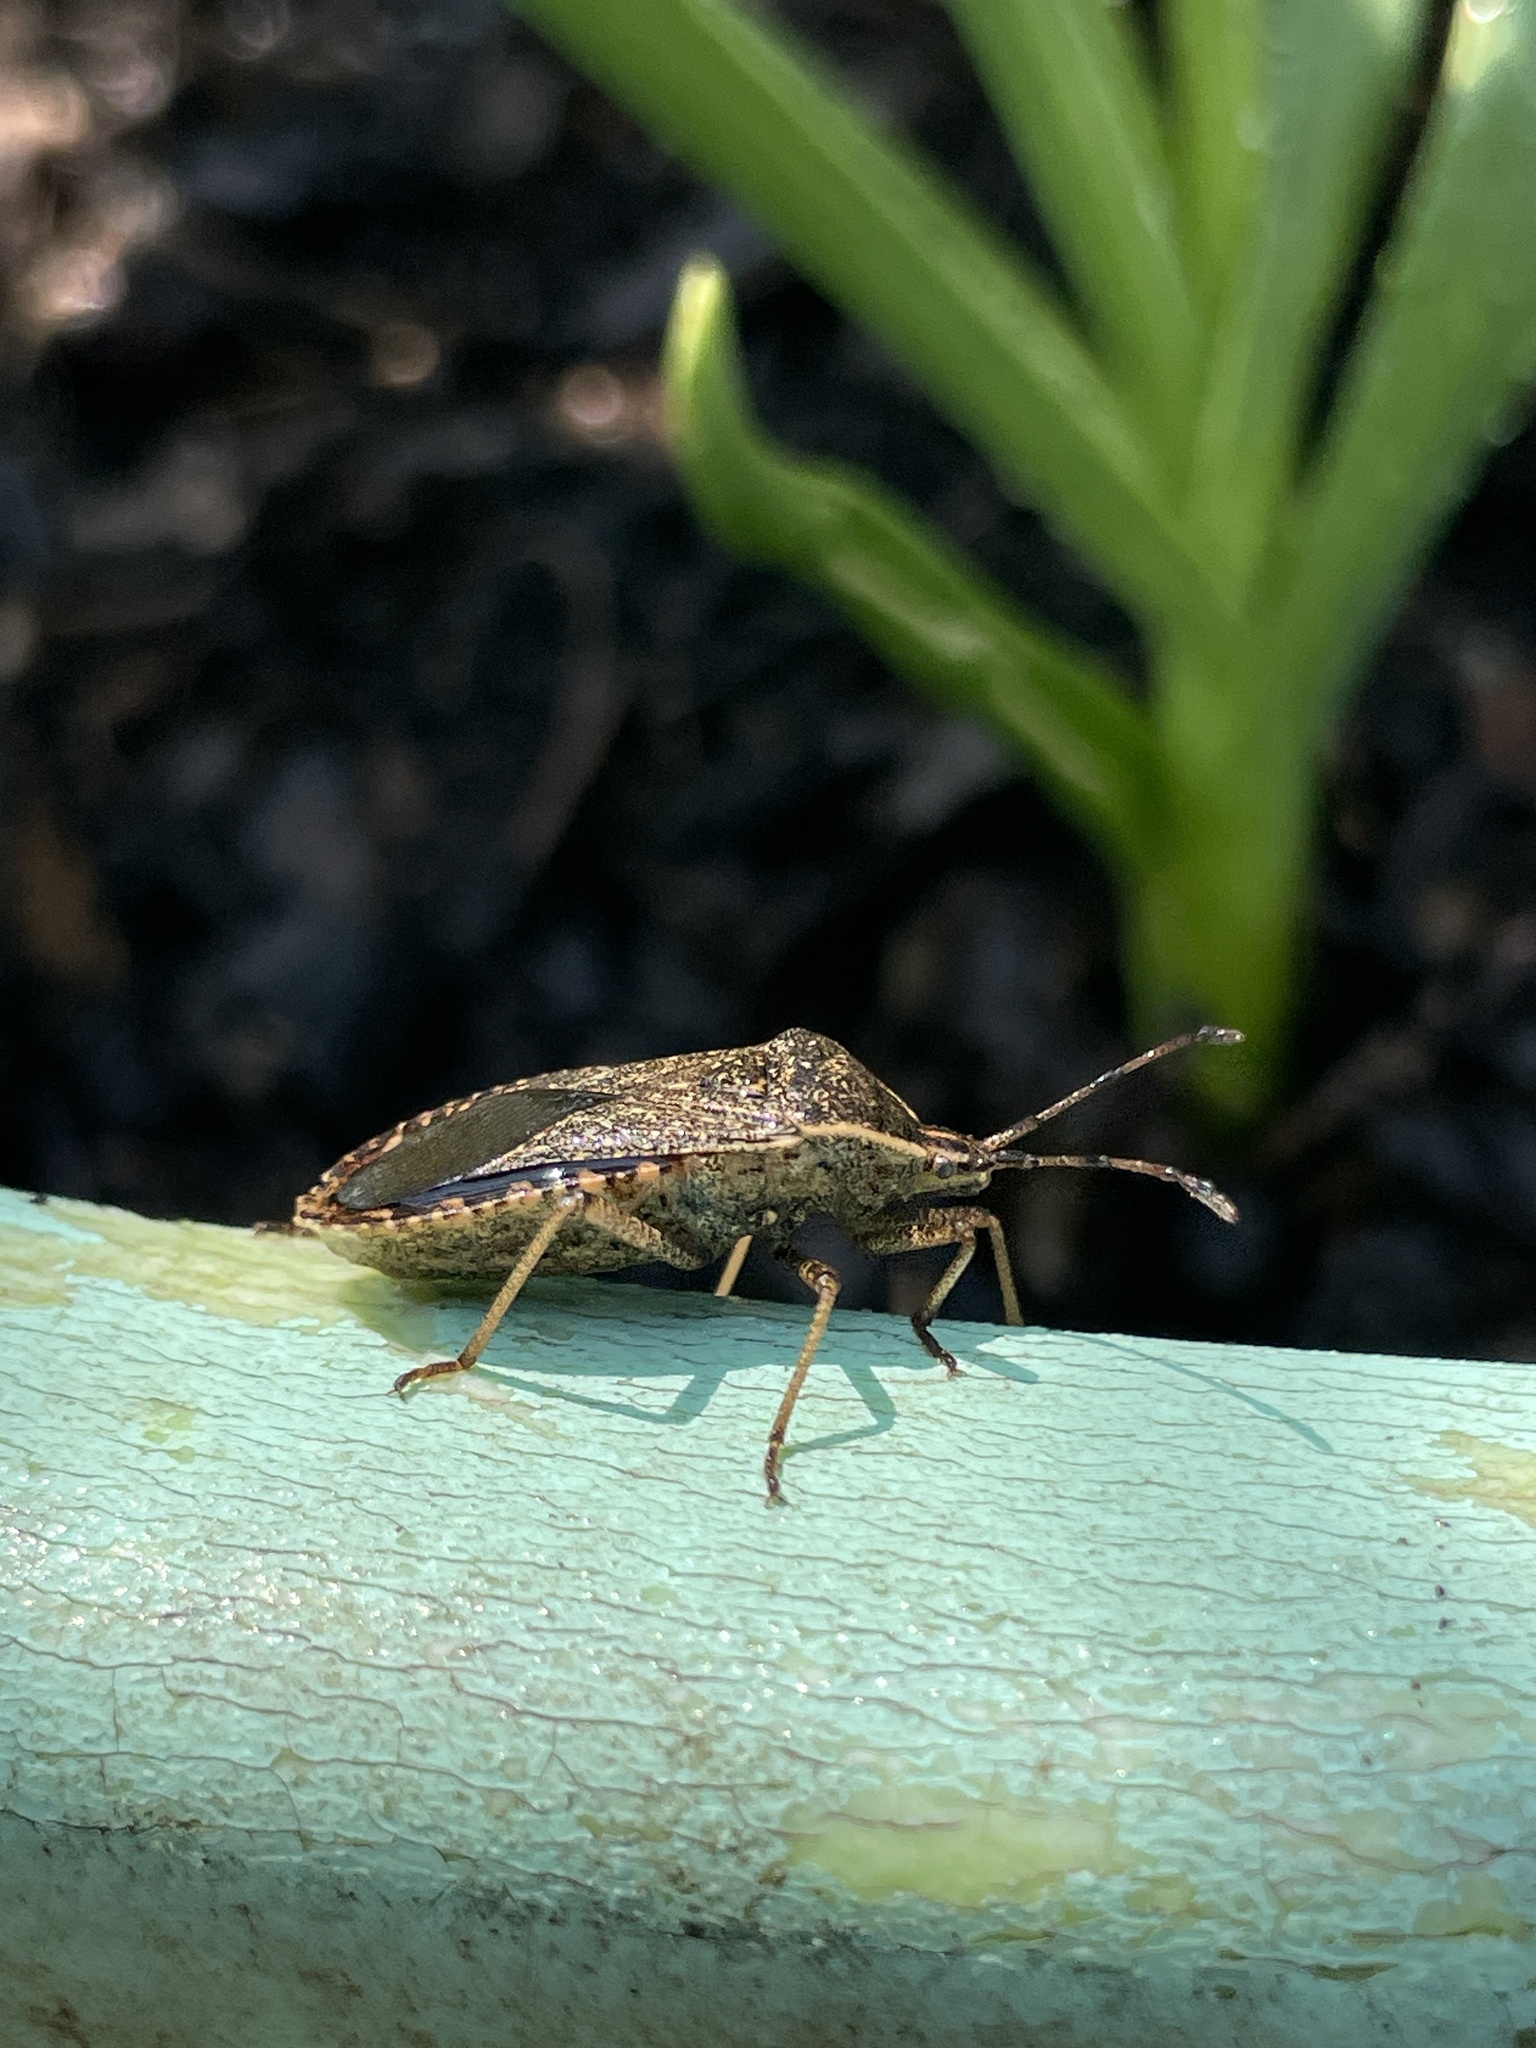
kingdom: Animalia
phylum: Arthropoda
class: Insecta
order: Hemiptera
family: Coreidae
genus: Anasa
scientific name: Anasa tristis
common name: Squash bug
